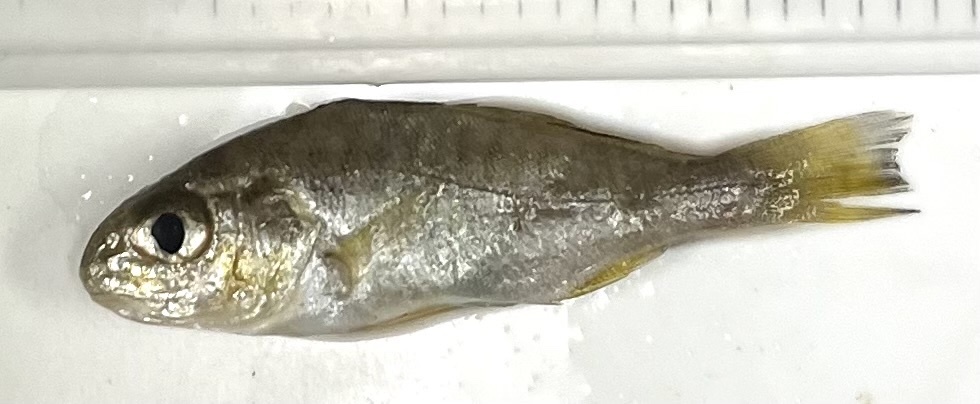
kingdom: Animalia
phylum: Chordata
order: Perciformes
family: Sciaenidae
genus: Leiostomus
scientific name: Leiostomus xanthurus
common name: Spot
